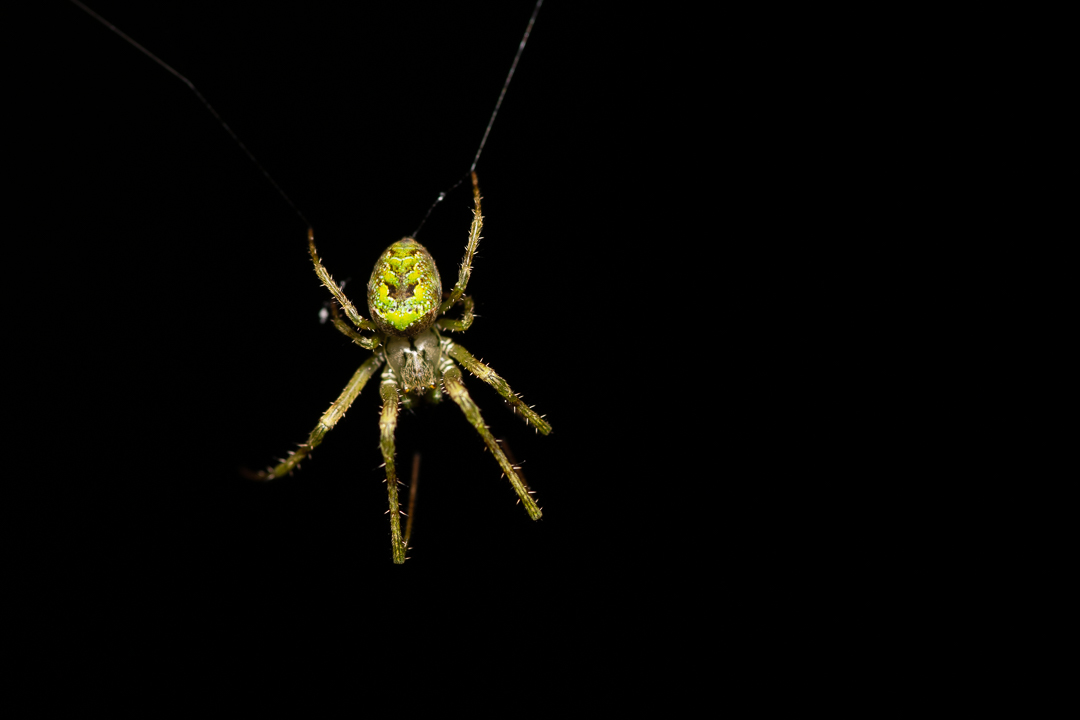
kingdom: Animalia
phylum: Arthropoda
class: Arachnida
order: Araneae
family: Tetragnathidae
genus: Allende
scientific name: Allende nigrohumeralis
